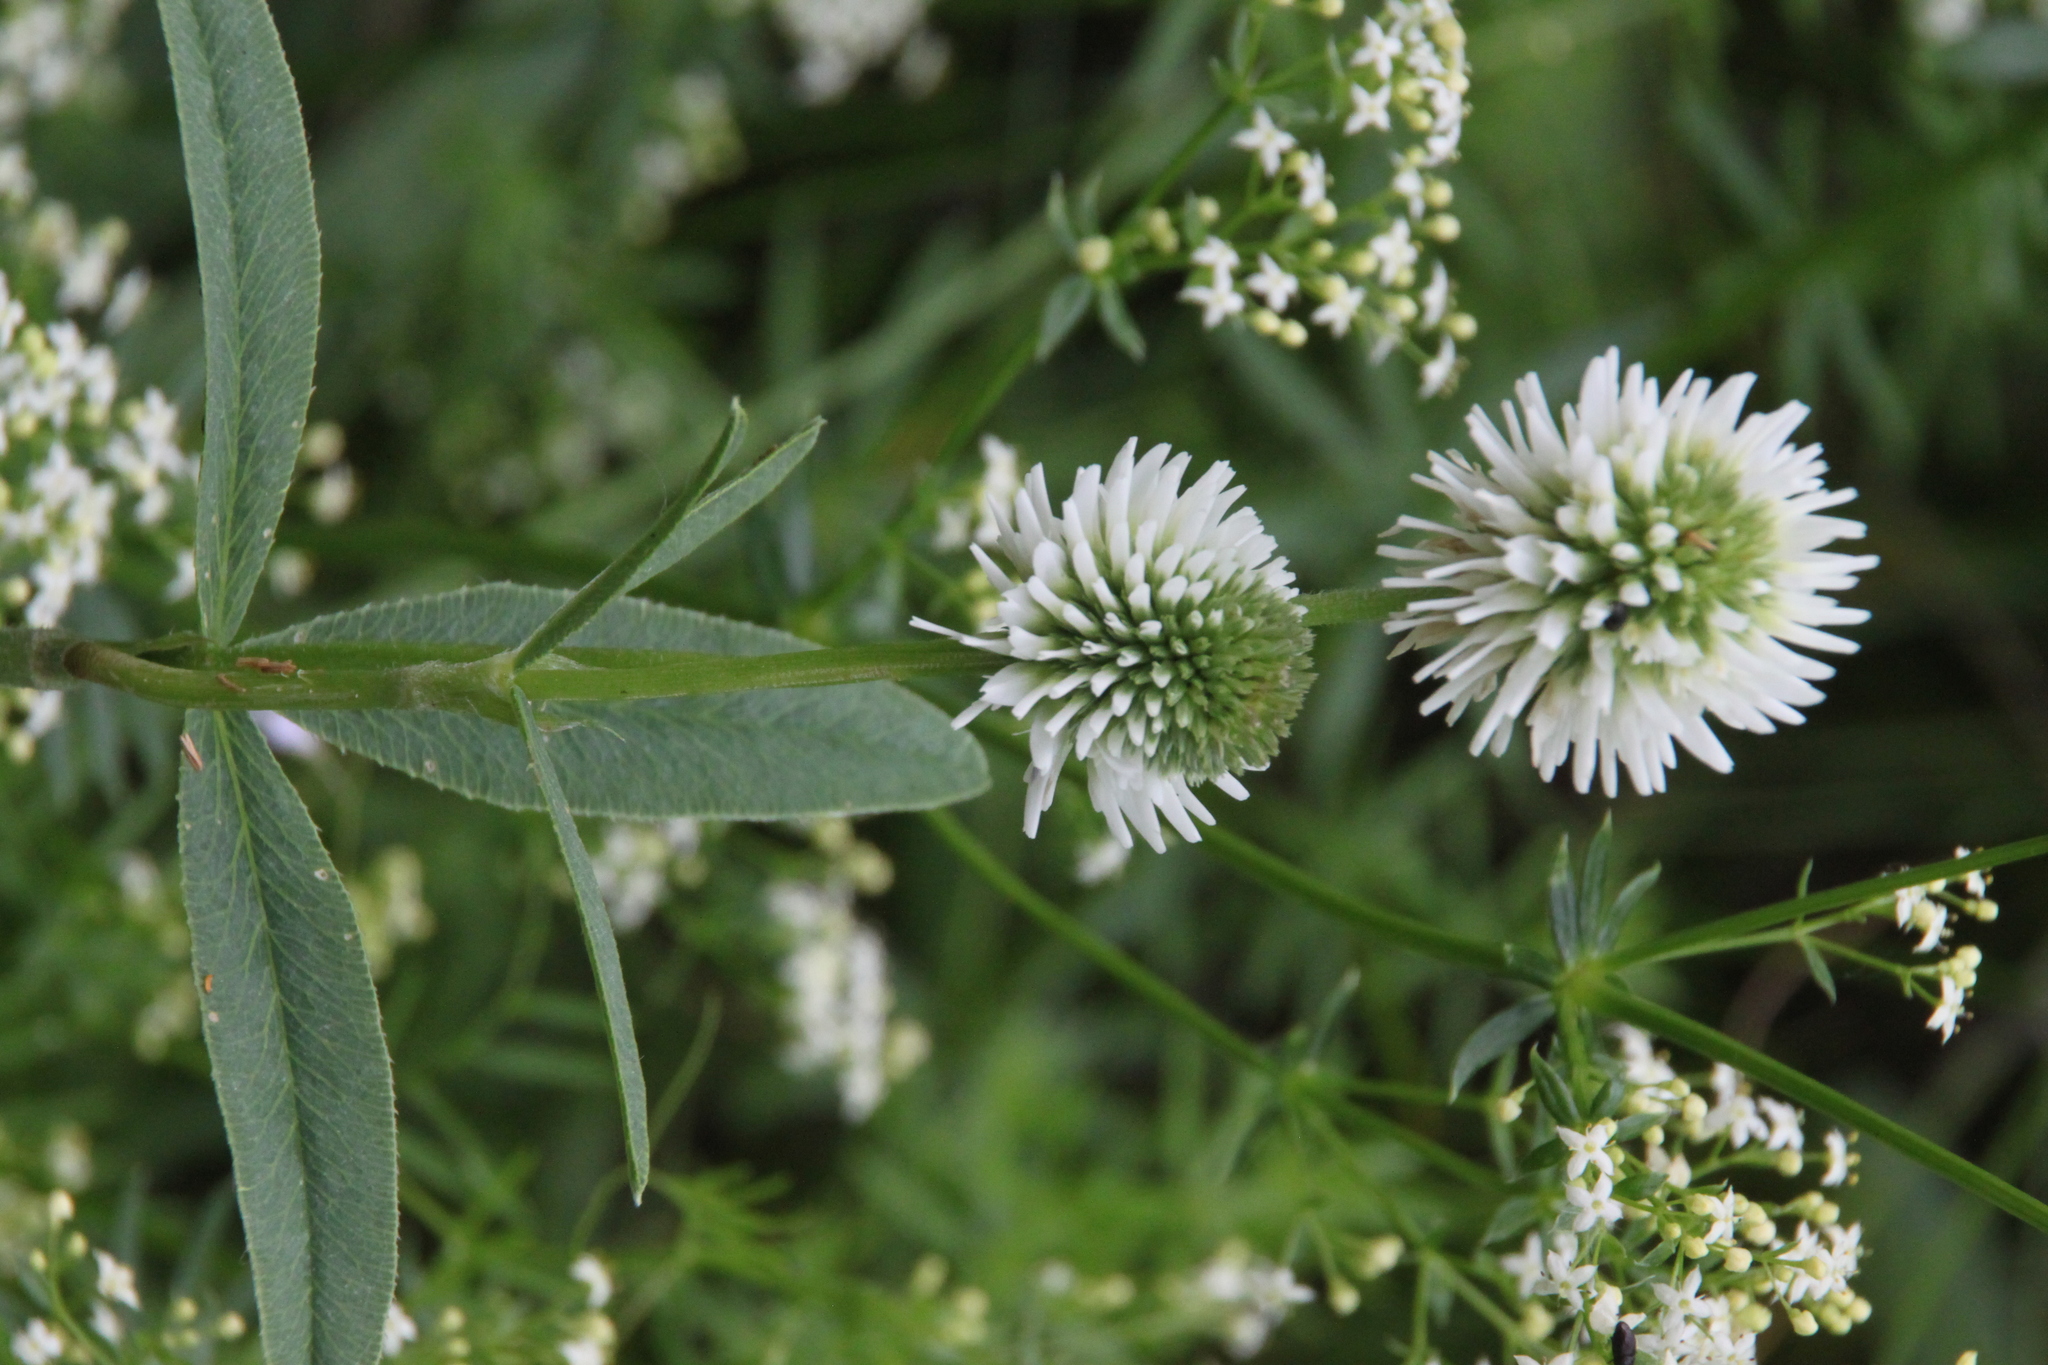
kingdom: Plantae
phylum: Tracheophyta
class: Magnoliopsida
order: Fabales
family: Fabaceae
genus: Trifolium
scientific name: Trifolium montanum
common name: Mountain clover
